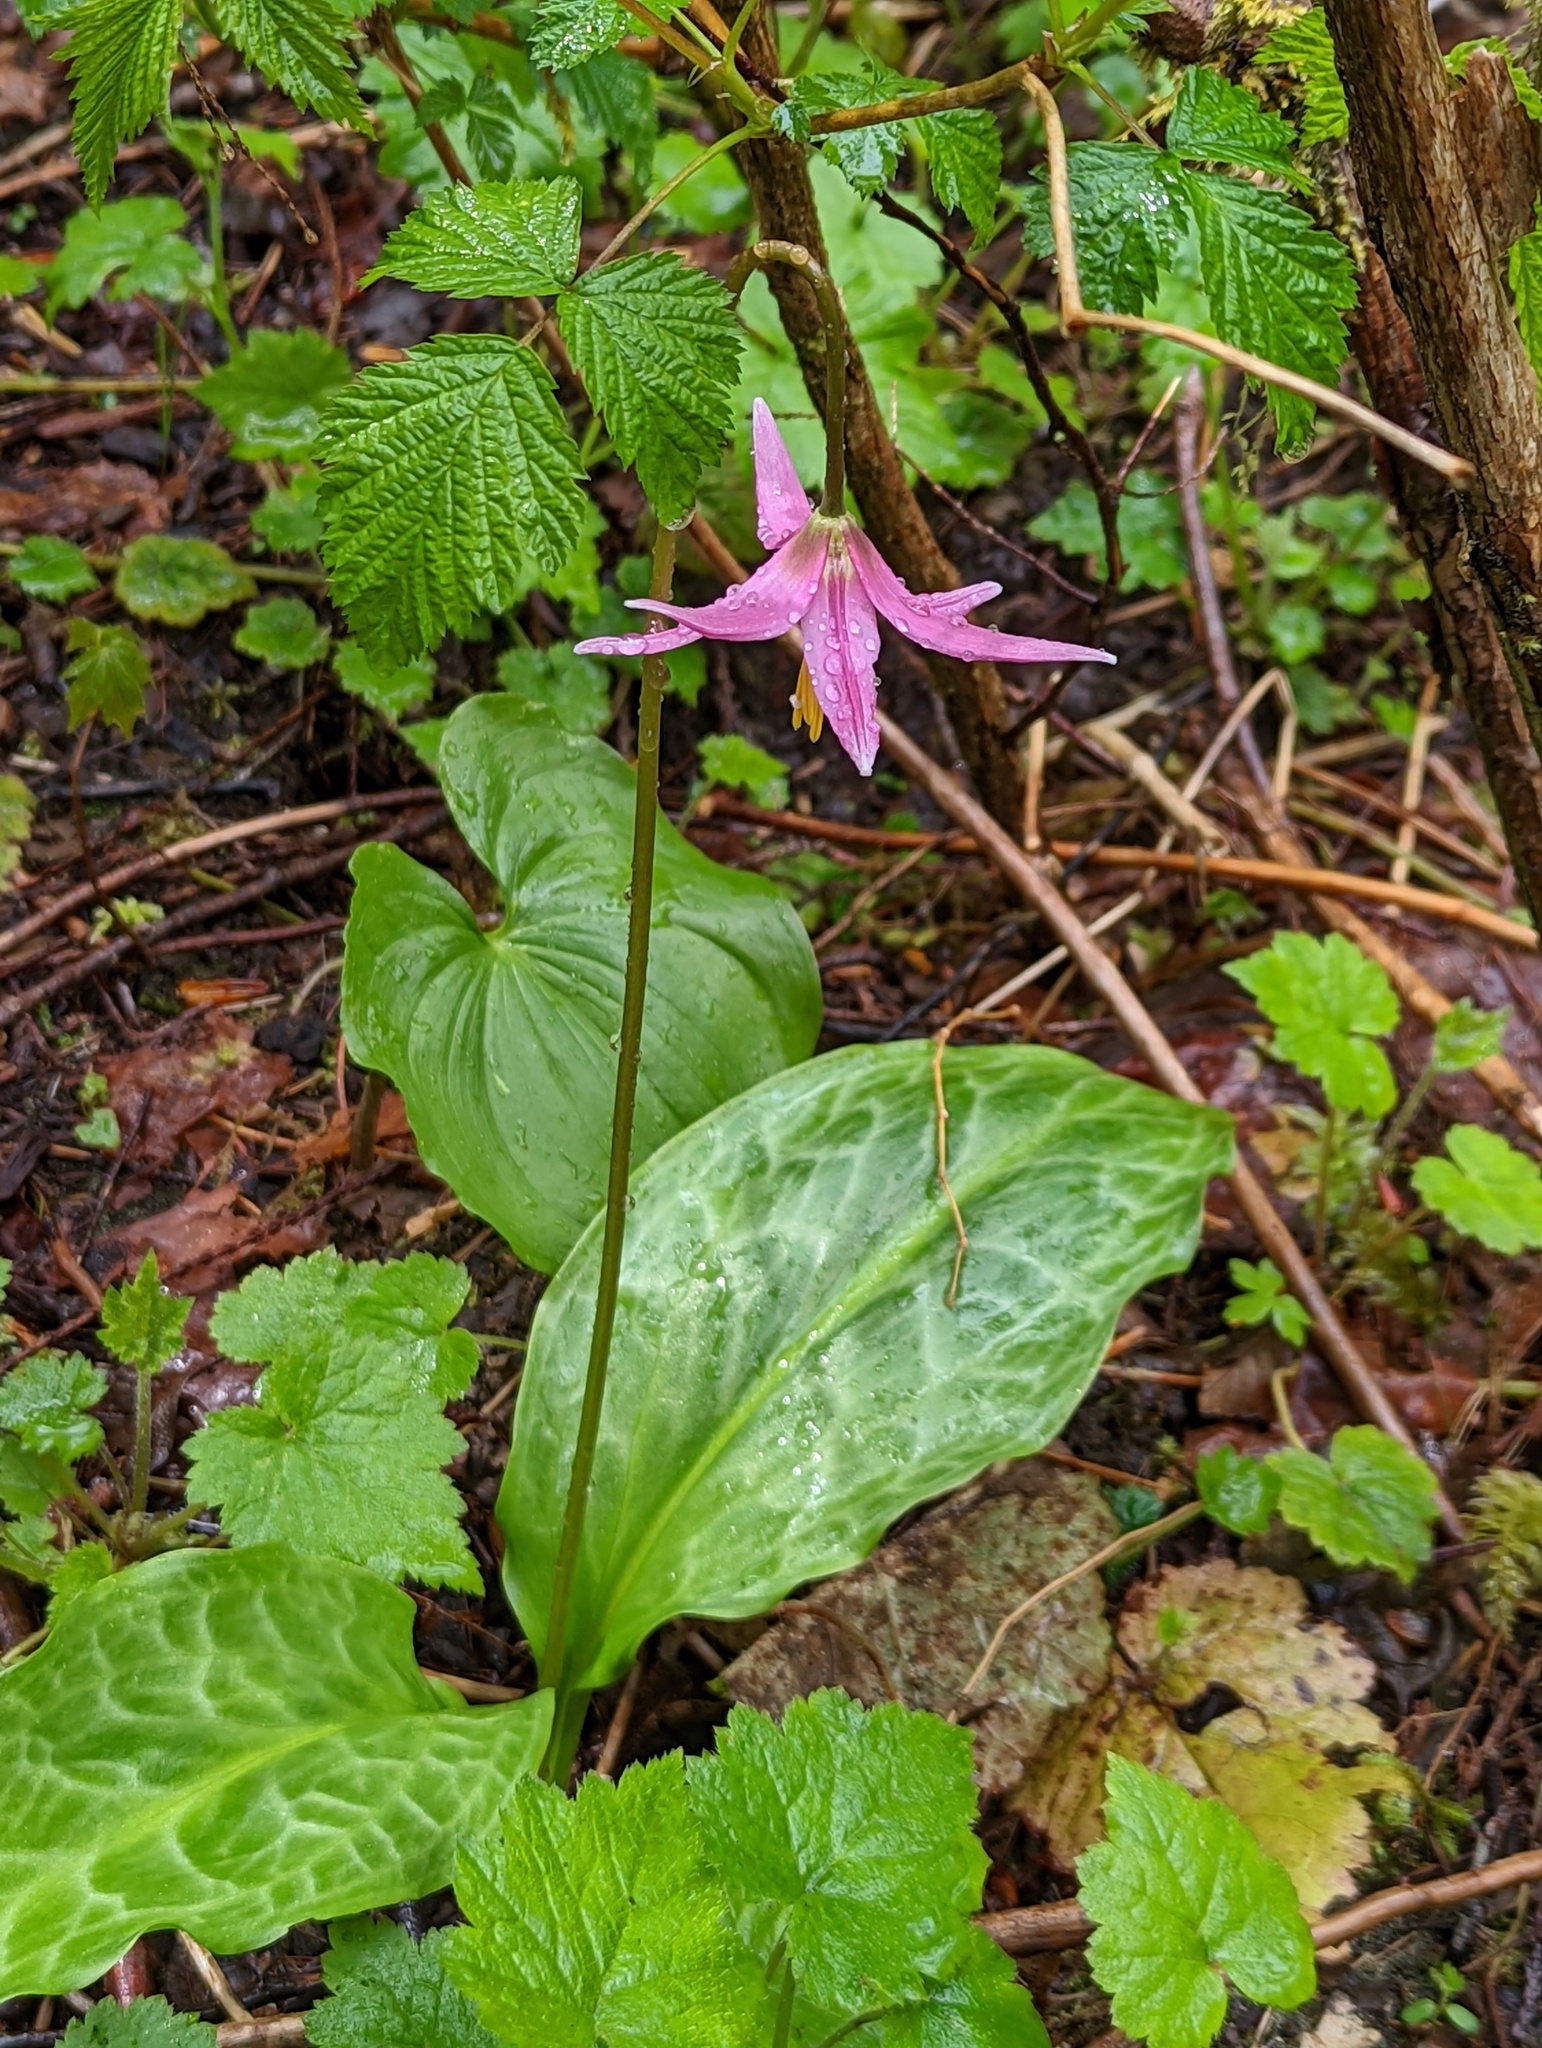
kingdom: Plantae
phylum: Tracheophyta
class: Liliopsida
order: Liliales
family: Liliaceae
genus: Erythronium
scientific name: Erythronium revolutum
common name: Pink fawn-lily
